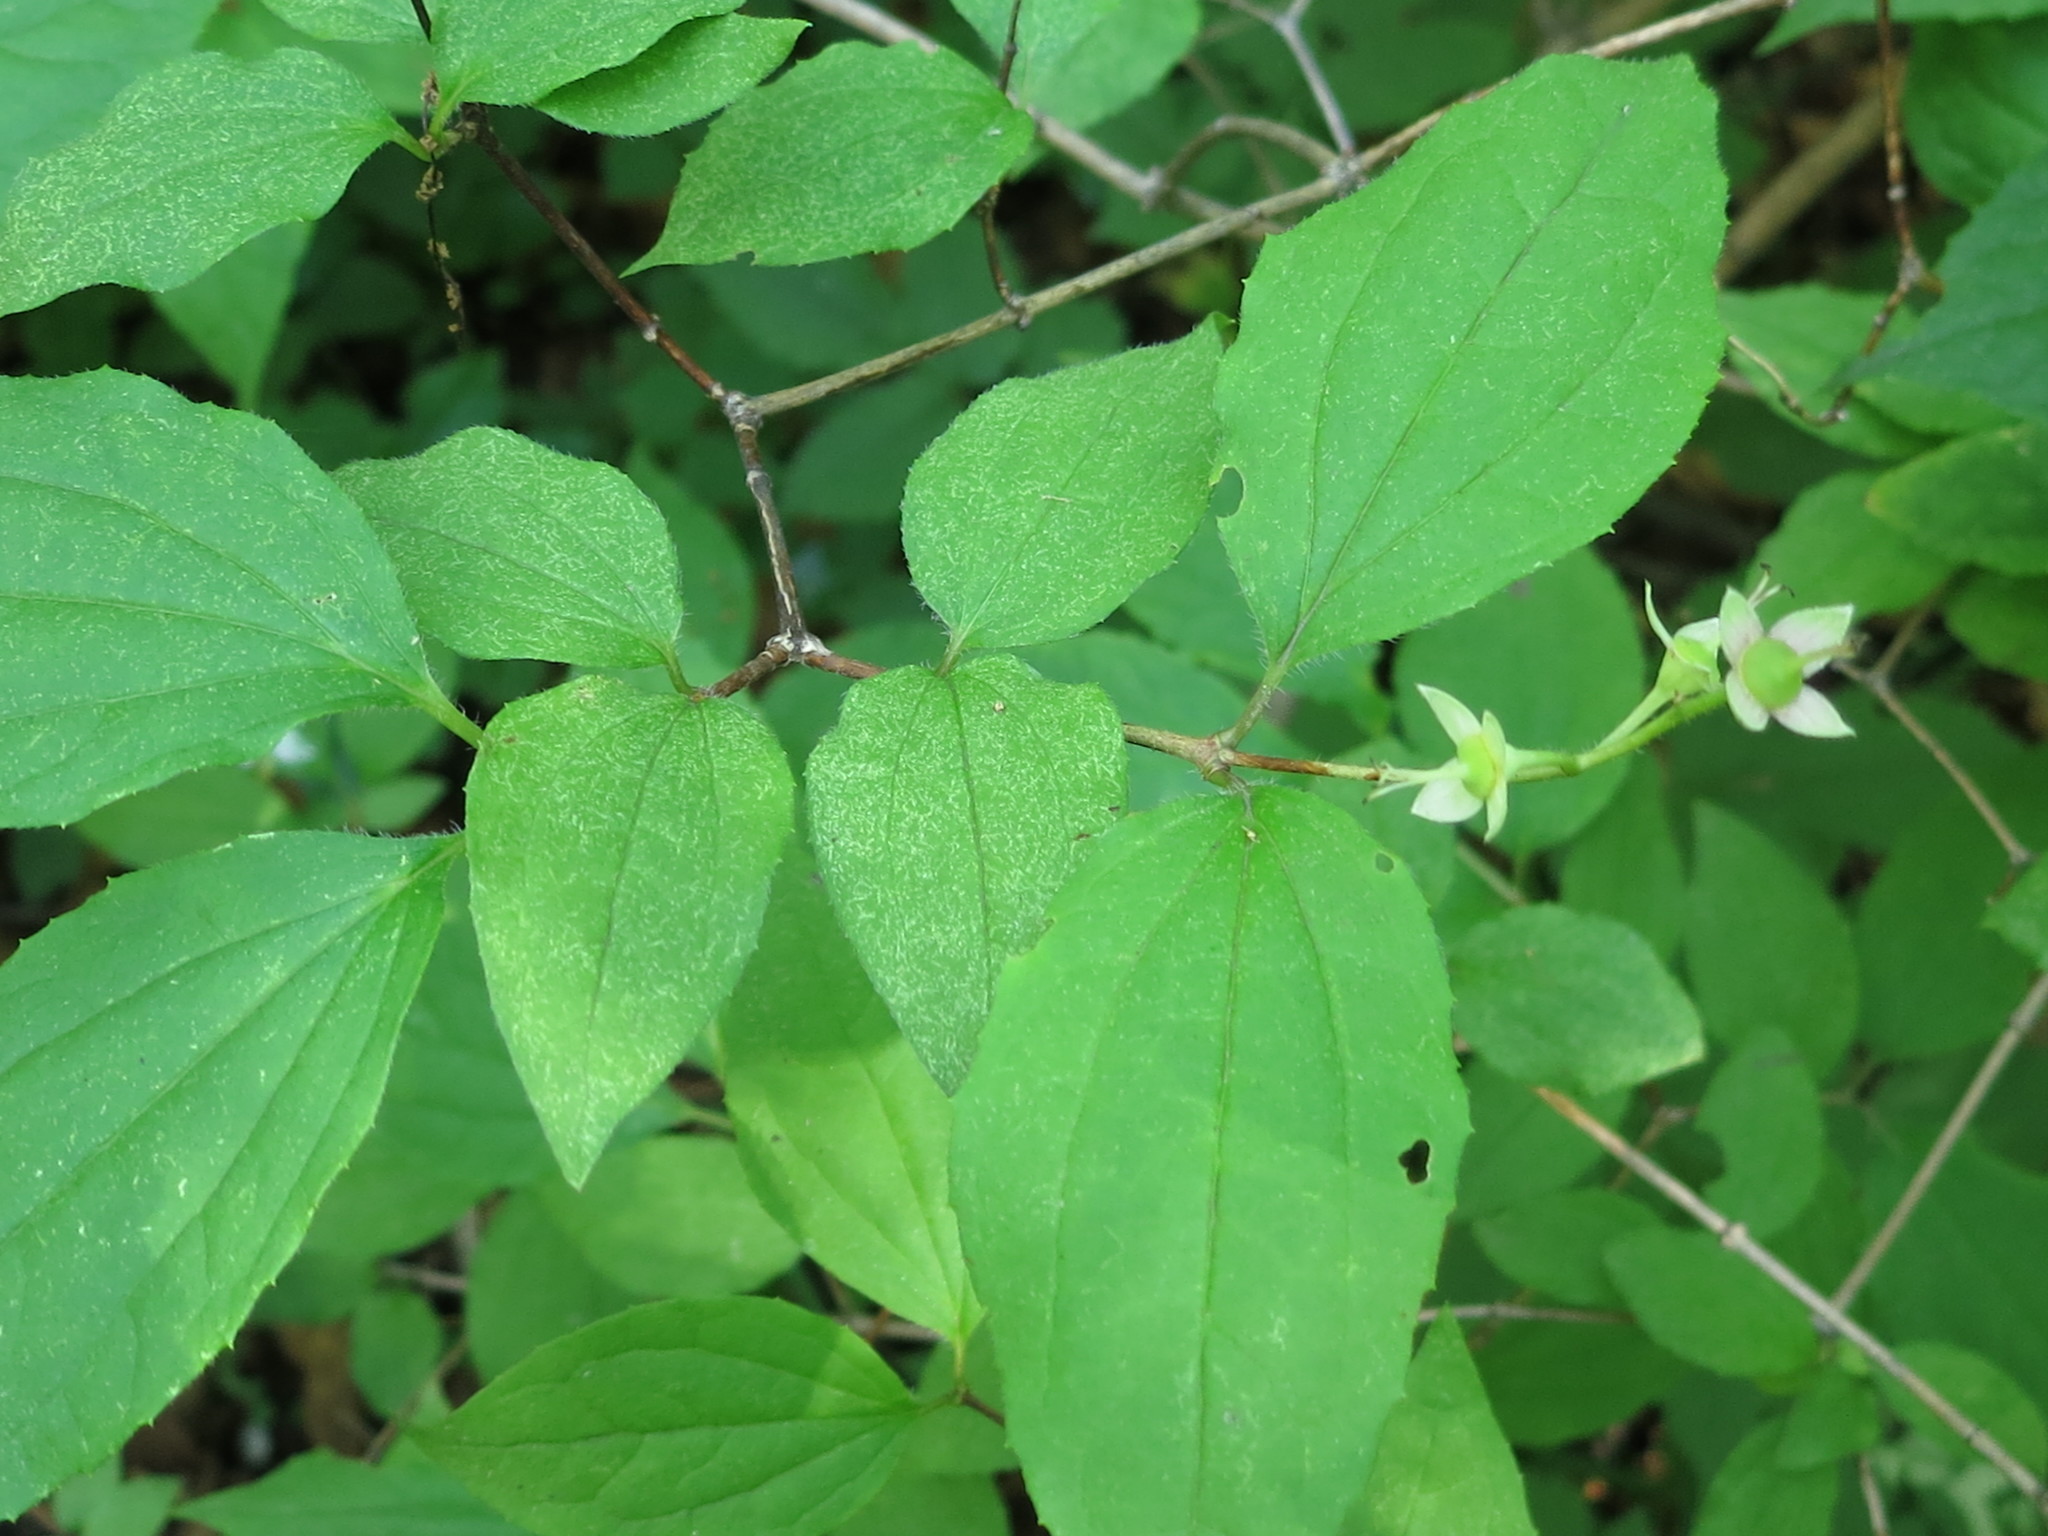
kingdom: Plantae
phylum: Tracheophyta
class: Magnoliopsida
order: Cornales
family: Hydrangeaceae
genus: Philadelphus
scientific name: Philadelphus tenuifolius
